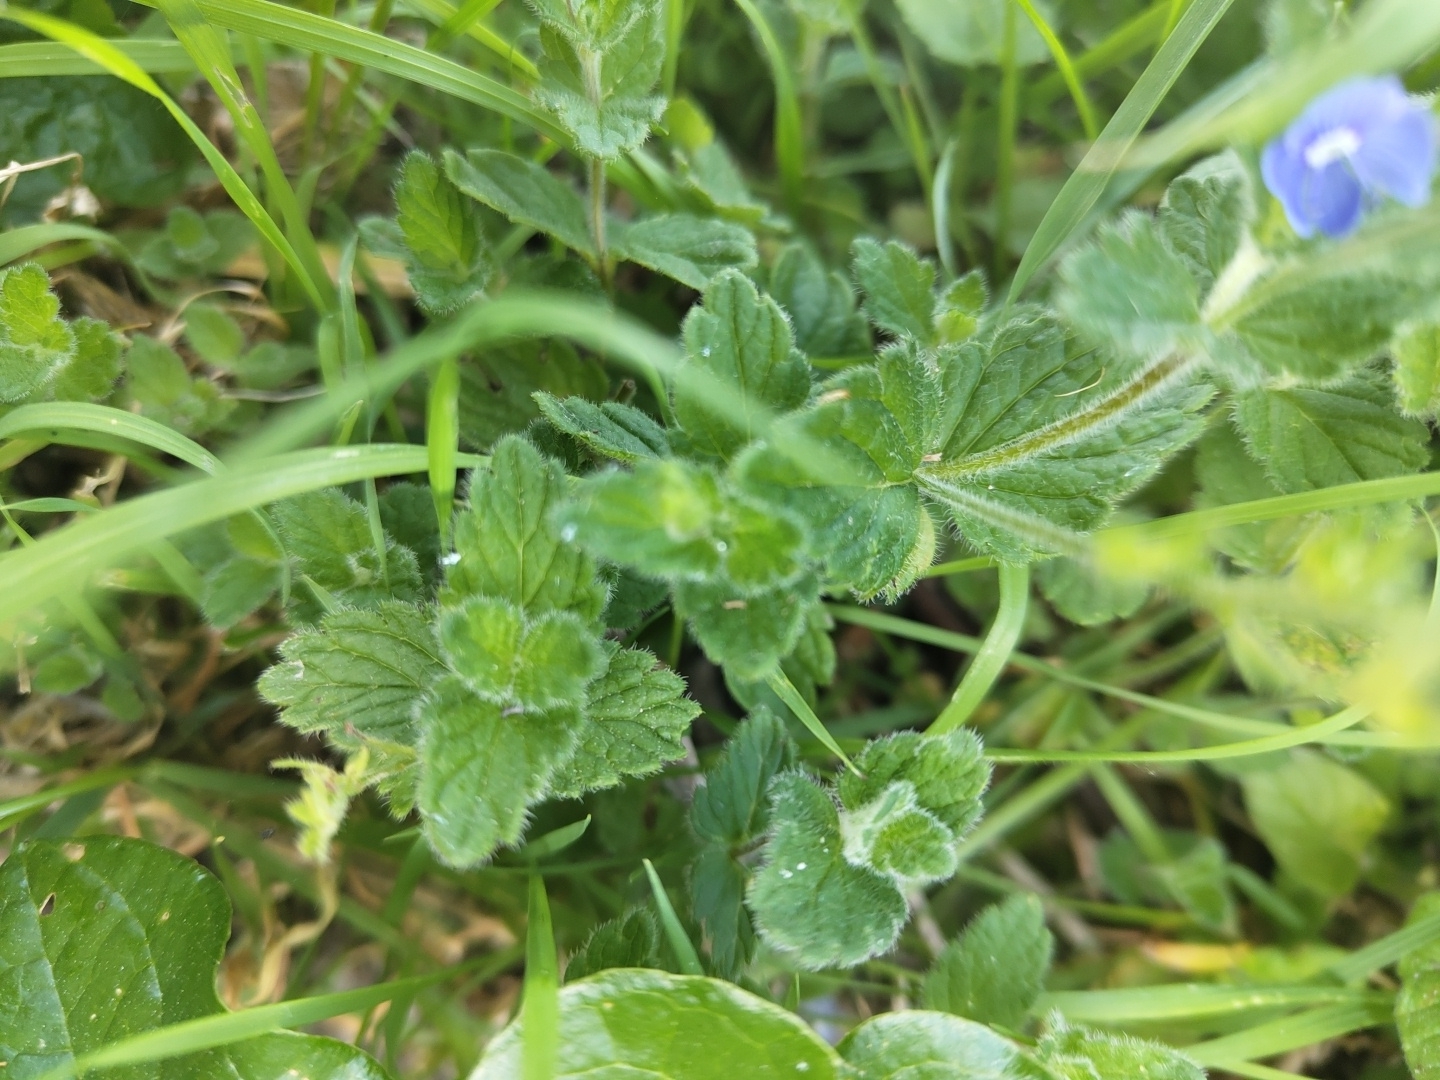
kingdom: Plantae
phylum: Tracheophyta
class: Magnoliopsida
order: Lamiales
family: Plantaginaceae
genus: Veronica
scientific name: Veronica chamaedrys
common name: Germander speedwell
